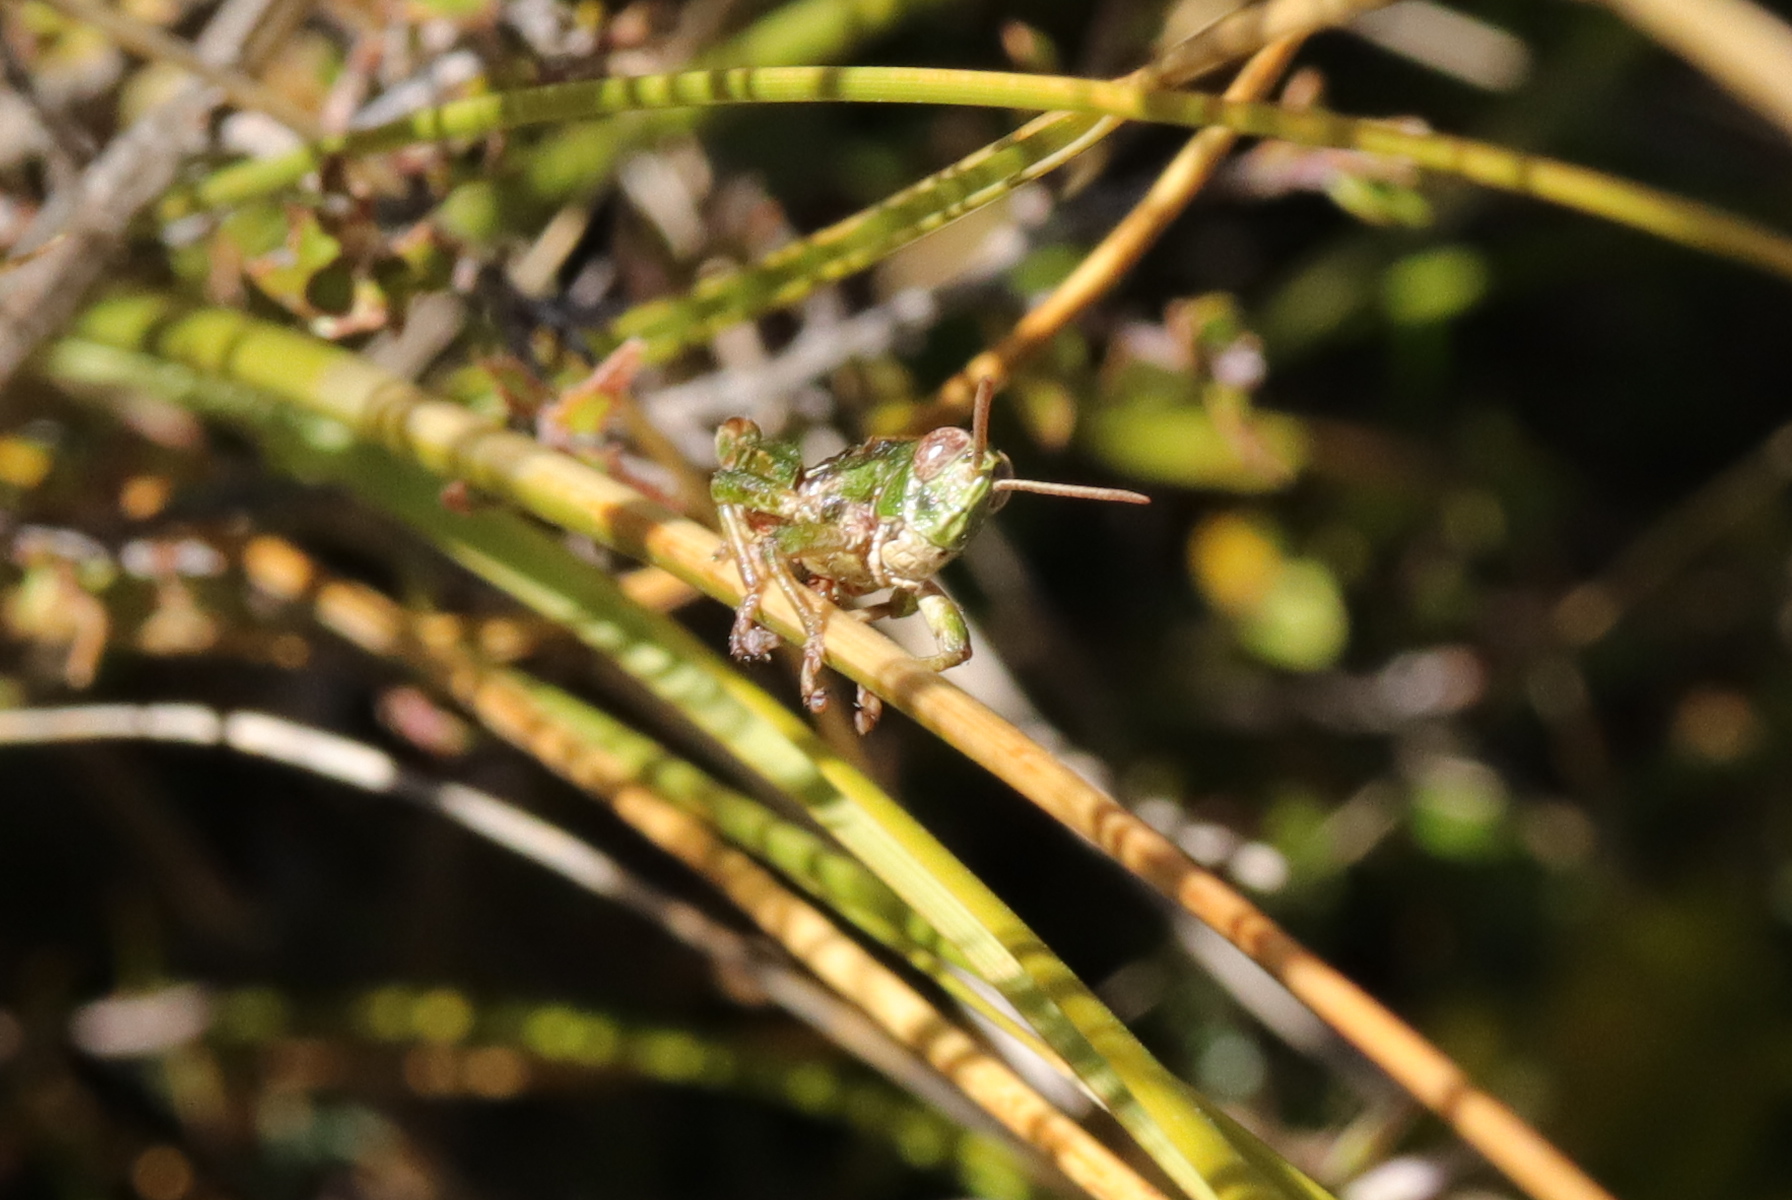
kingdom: Animalia
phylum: Arthropoda
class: Insecta
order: Orthoptera
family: Acrididae
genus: Sigaus
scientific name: Sigaus campestris
